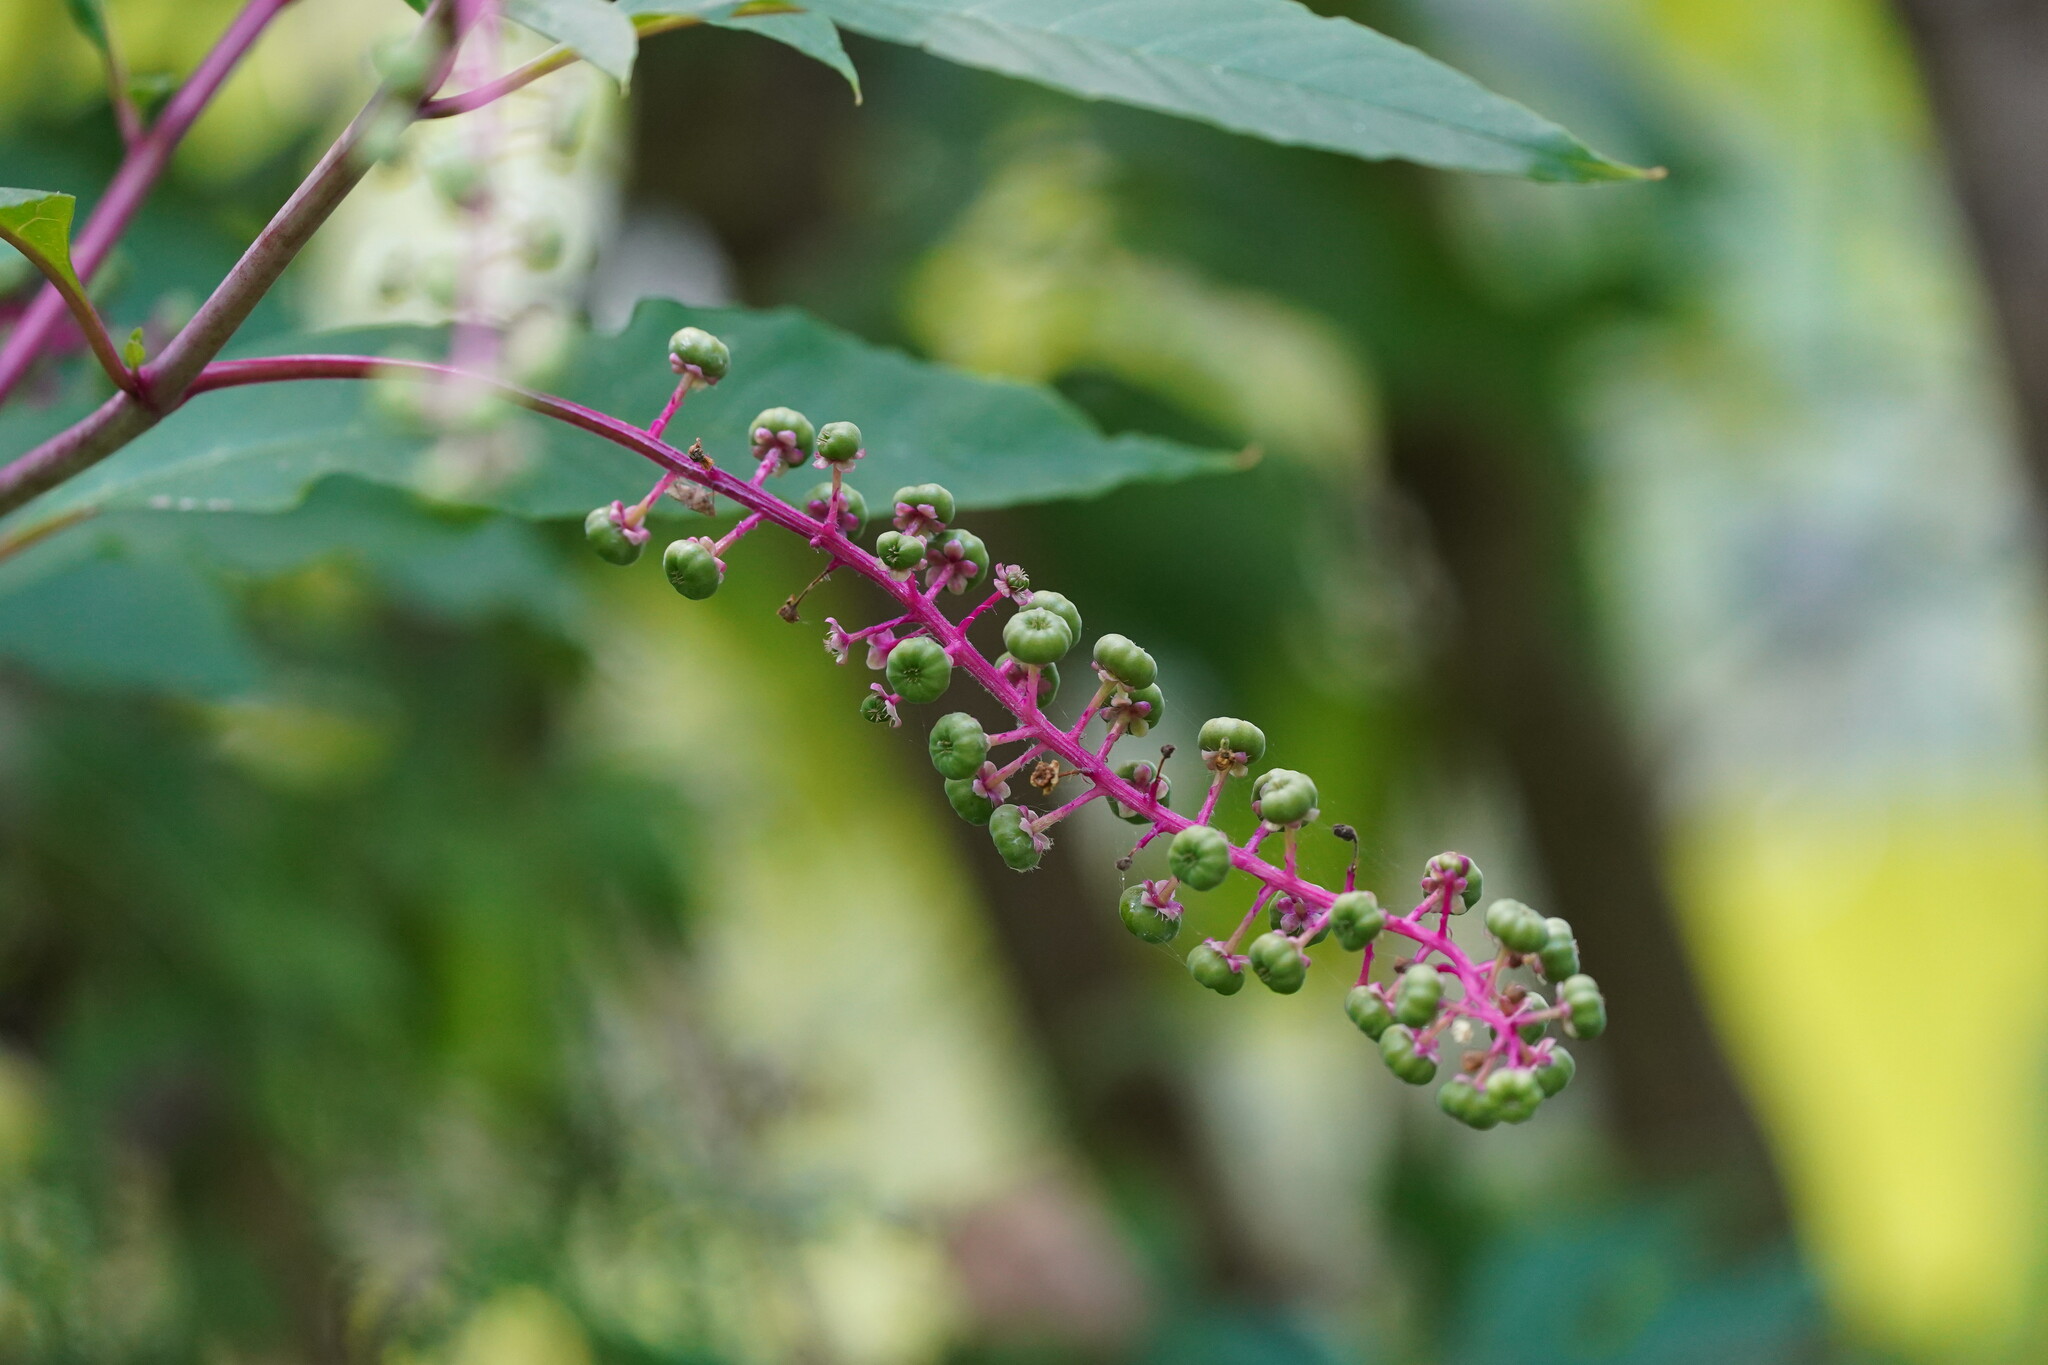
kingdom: Plantae
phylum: Tracheophyta
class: Magnoliopsida
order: Caryophyllales
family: Phytolaccaceae
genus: Phytolacca
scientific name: Phytolacca americana
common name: American pokeweed
